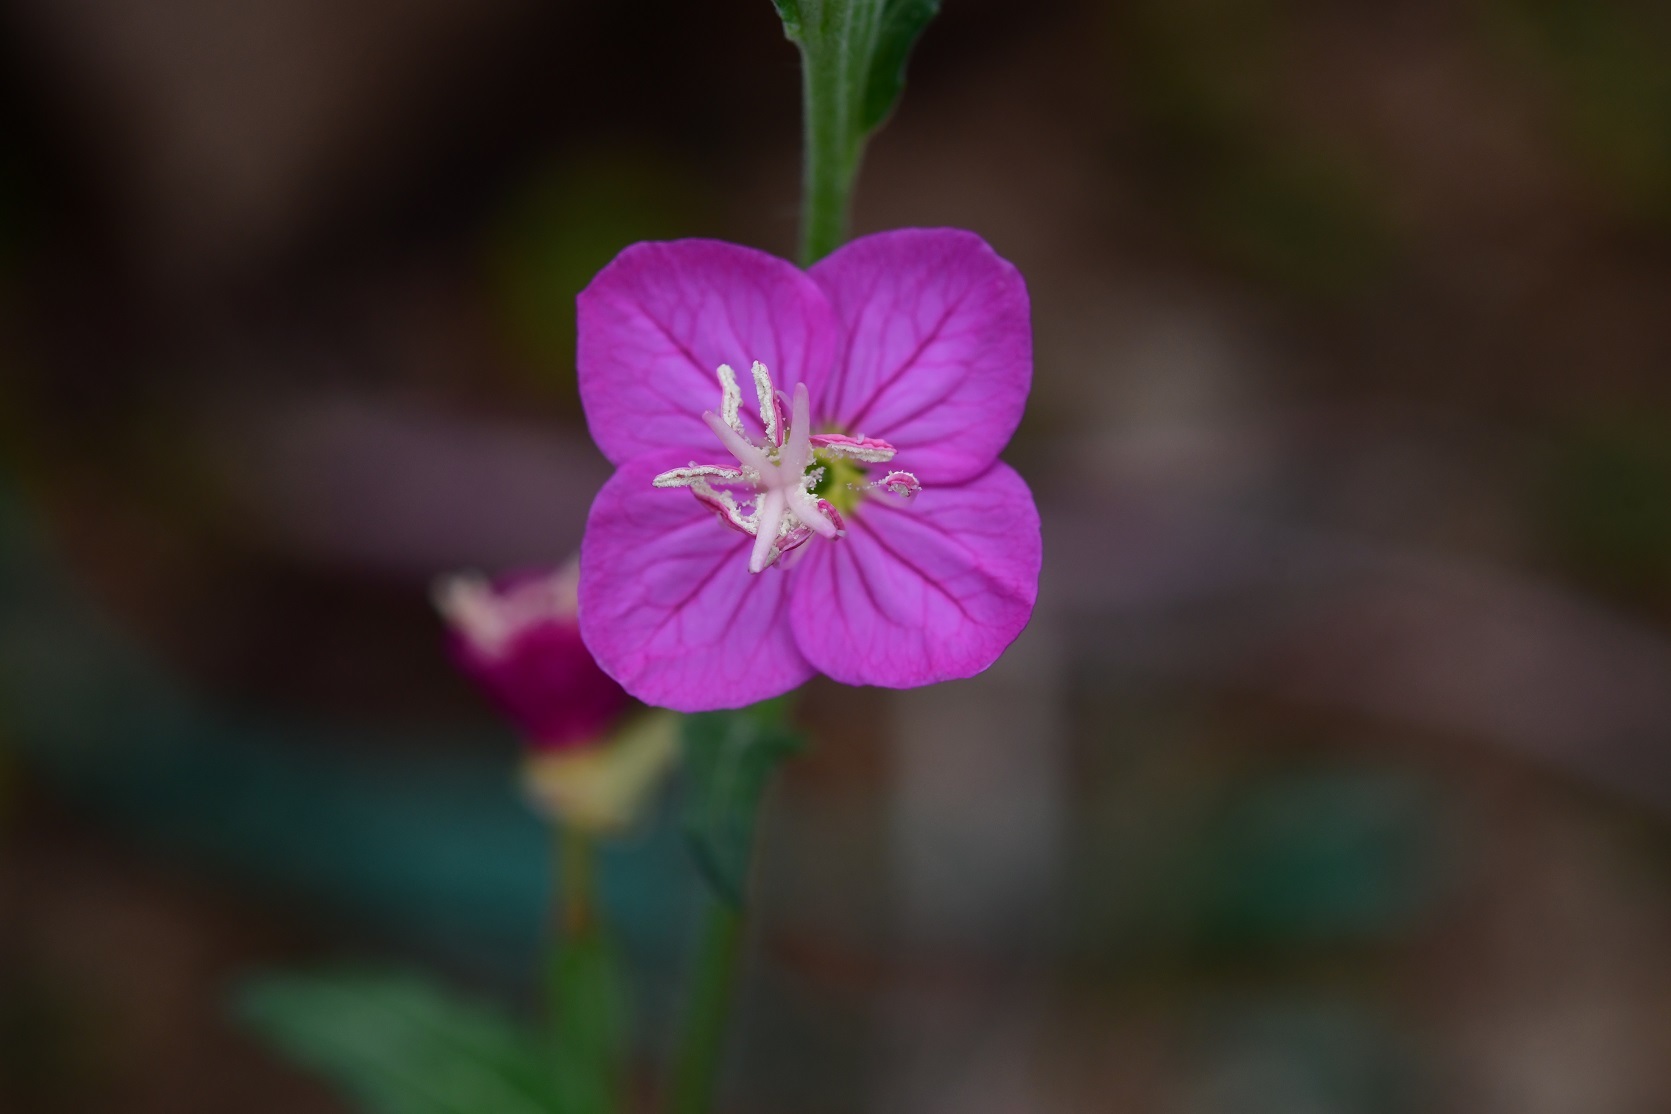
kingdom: Plantae
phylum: Tracheophyta
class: Magnoliopsida
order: Myrtales
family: Onagraceae
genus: Oenothera
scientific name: Oenothera rosea
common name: Rosy evening-primrose
